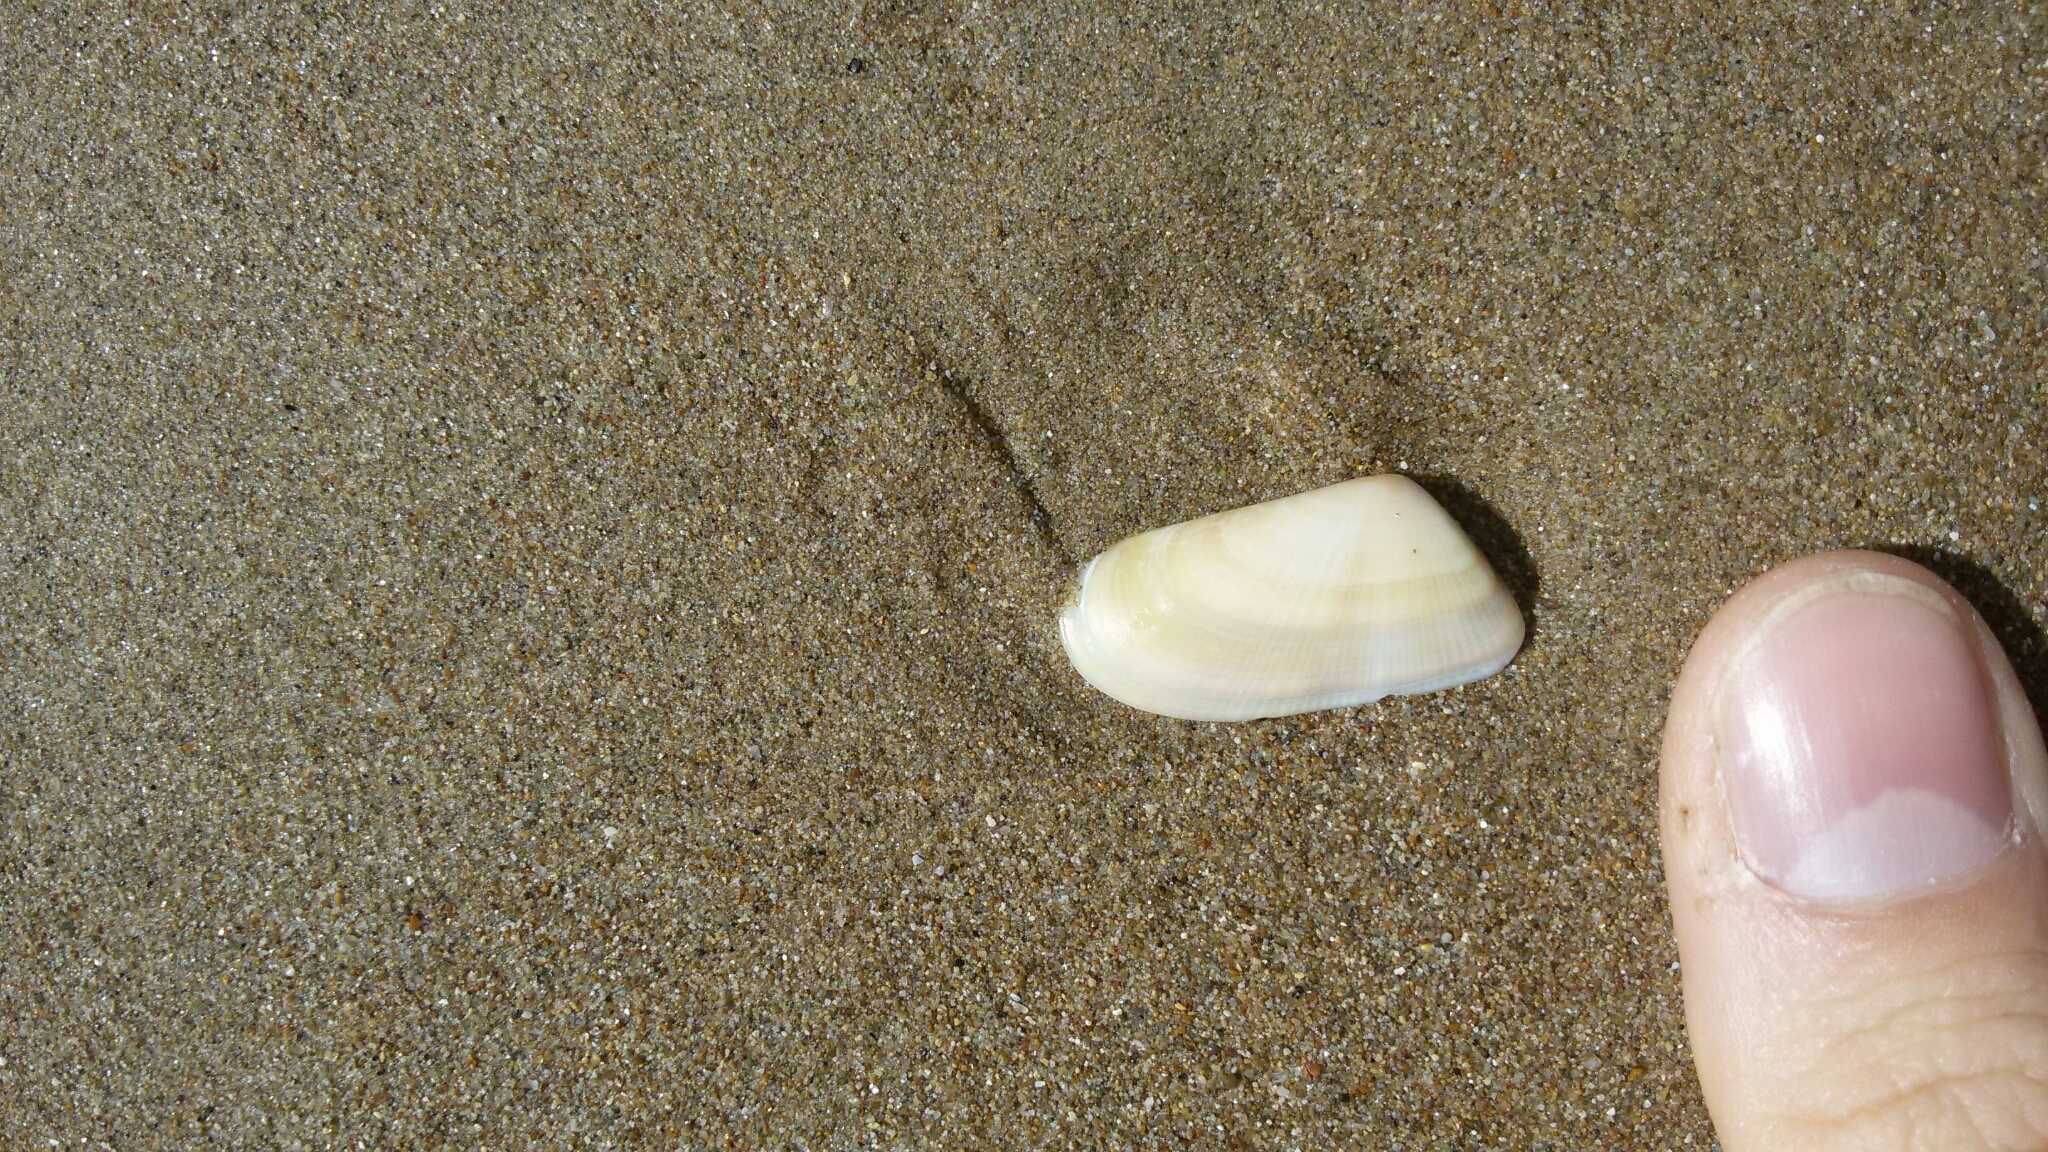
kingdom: Animalia
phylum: Mollusca
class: Bivalvia
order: Cardiida
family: Donacidae
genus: Donax
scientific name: Donax trunculus
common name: Truncate donax
